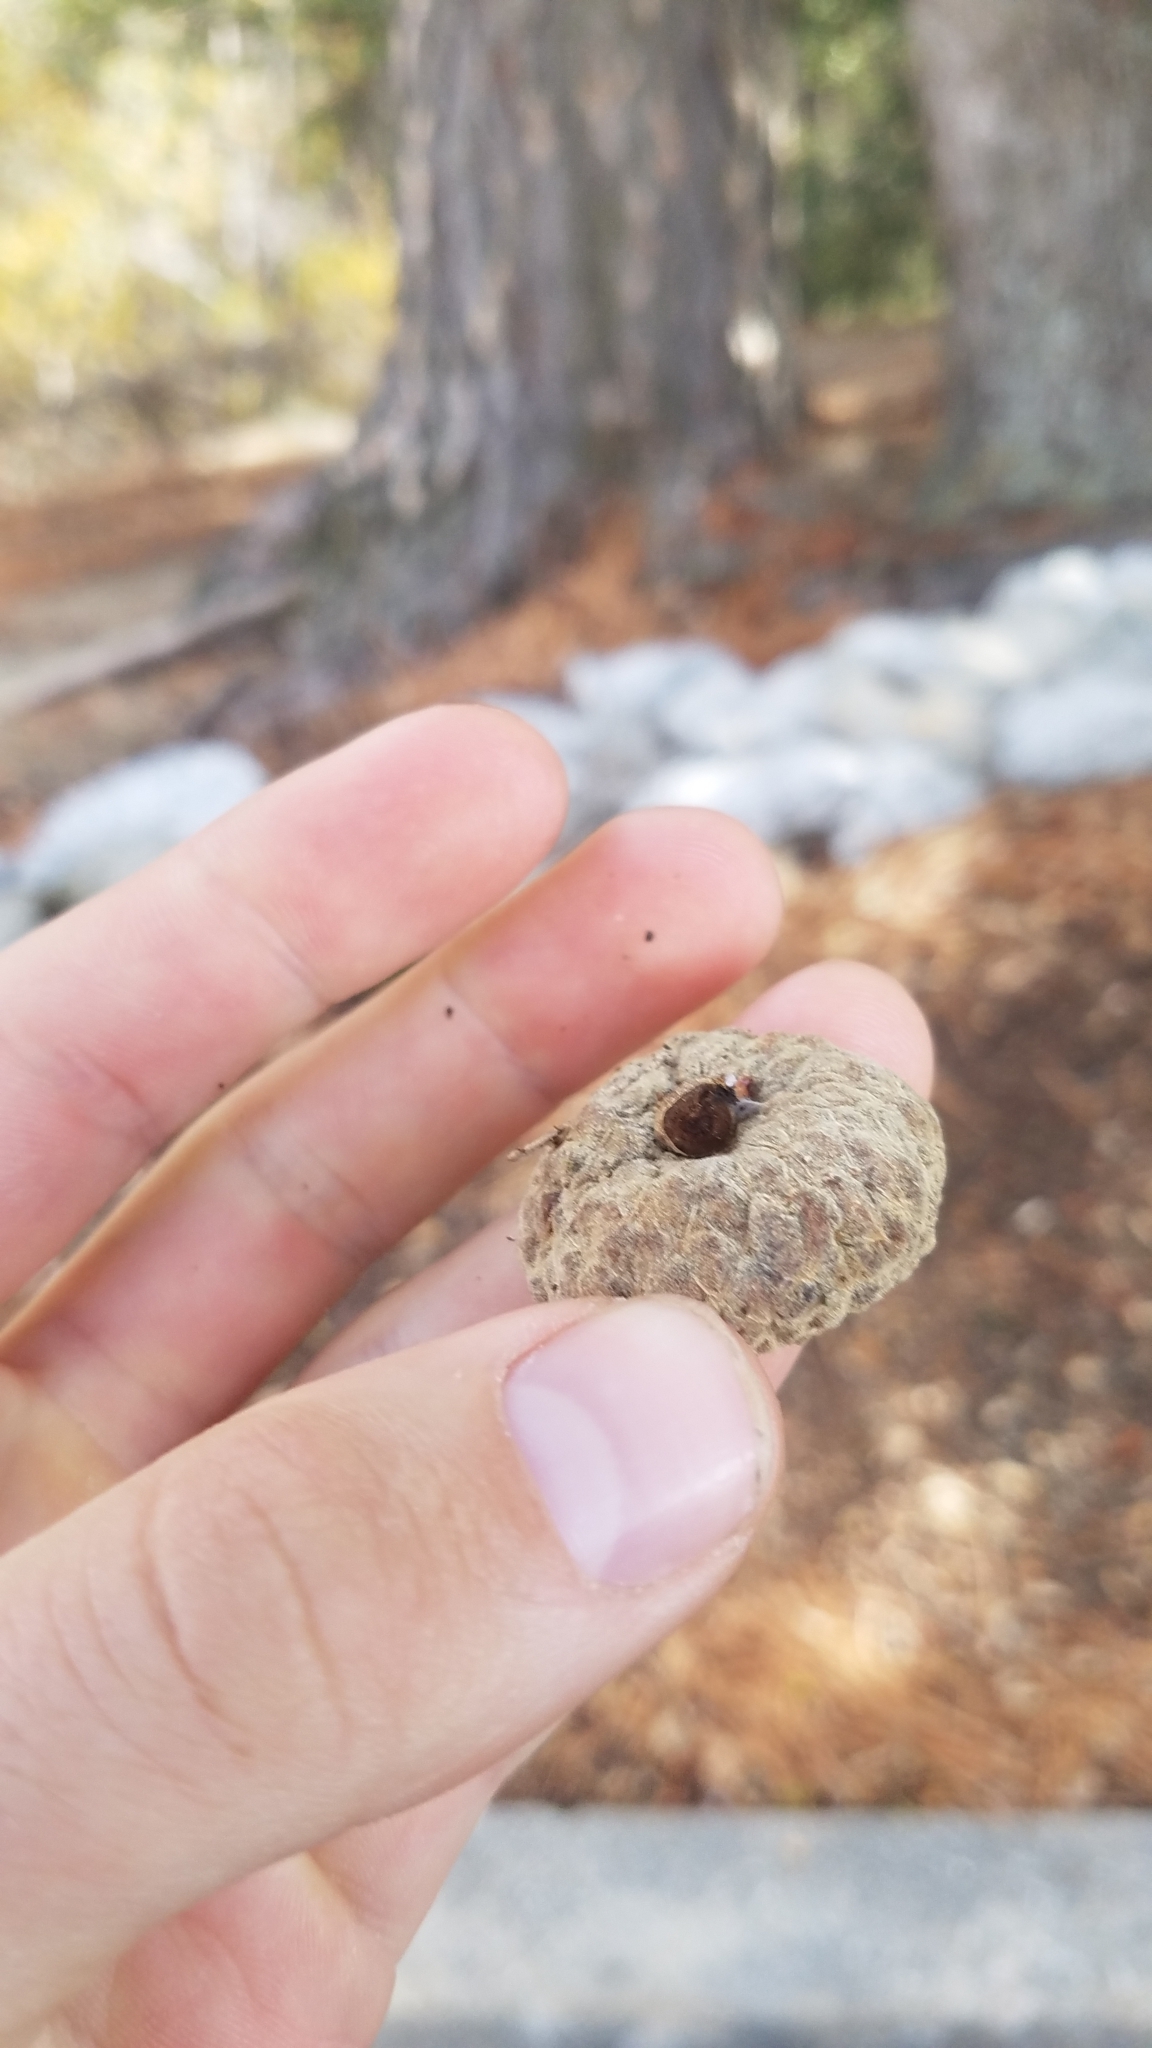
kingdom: Plantae
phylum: Tracheophyta
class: Magnoliopsida
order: Fagales
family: Fagaceae
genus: Quercus
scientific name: Quercus chrysolepis
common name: Canyon live oak
